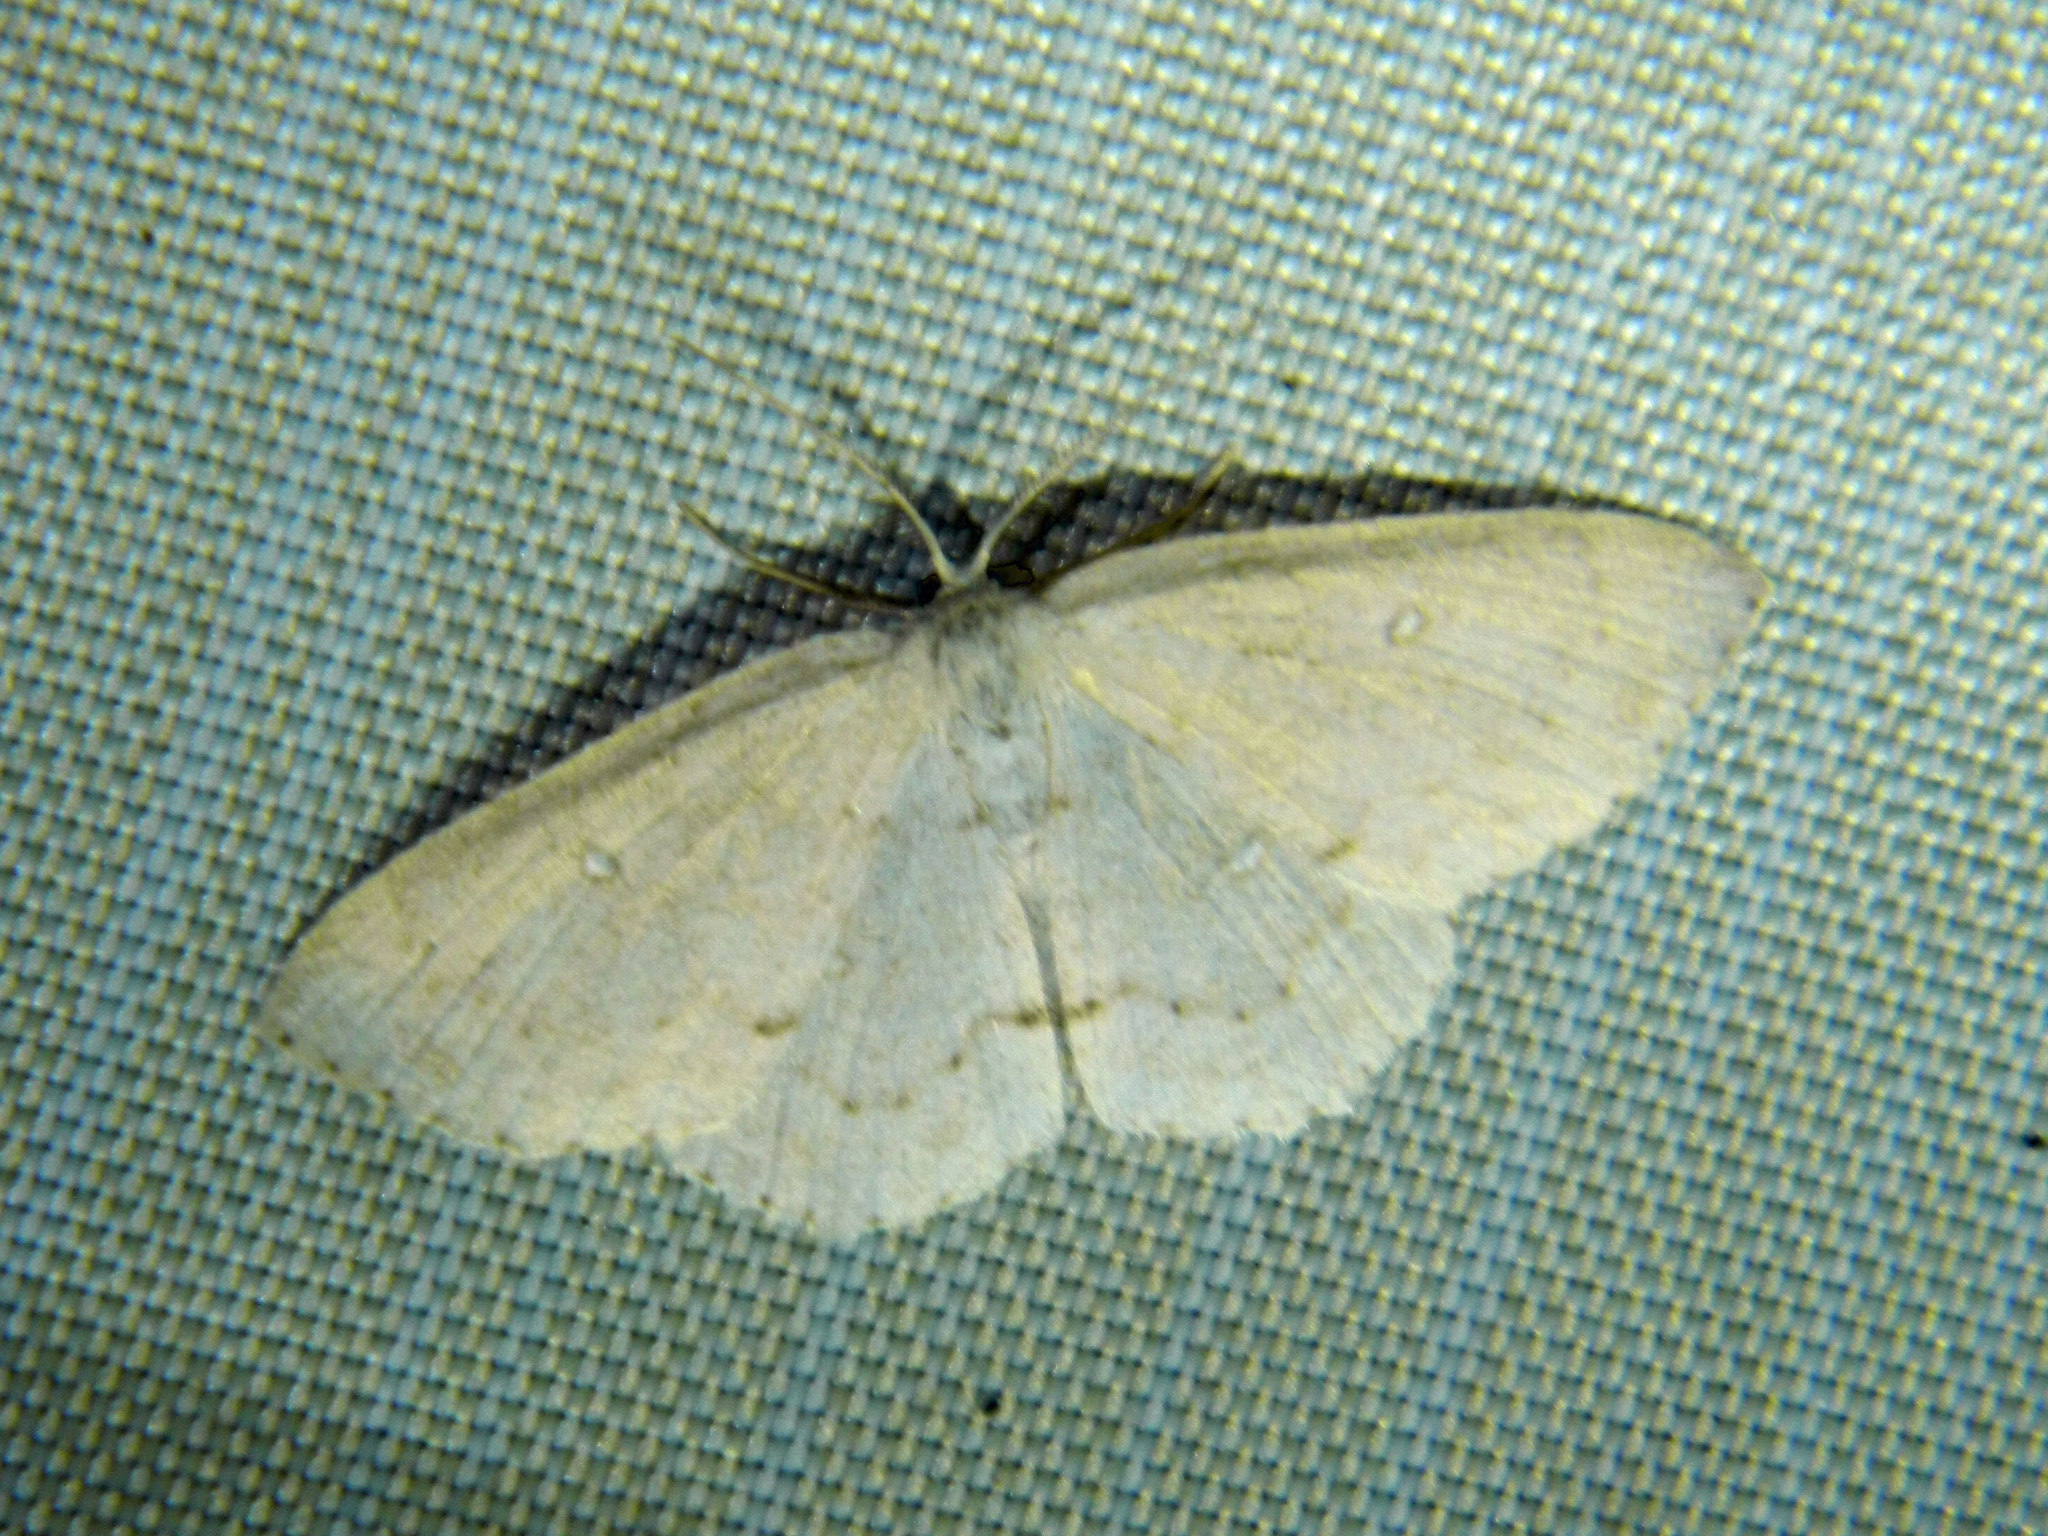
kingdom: Animalia
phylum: Arthropoda
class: Insecta
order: Lepidoptera
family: Geometridae
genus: Cyclophora
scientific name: Cyclophora pendulinaria
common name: Sweet fern geometer
